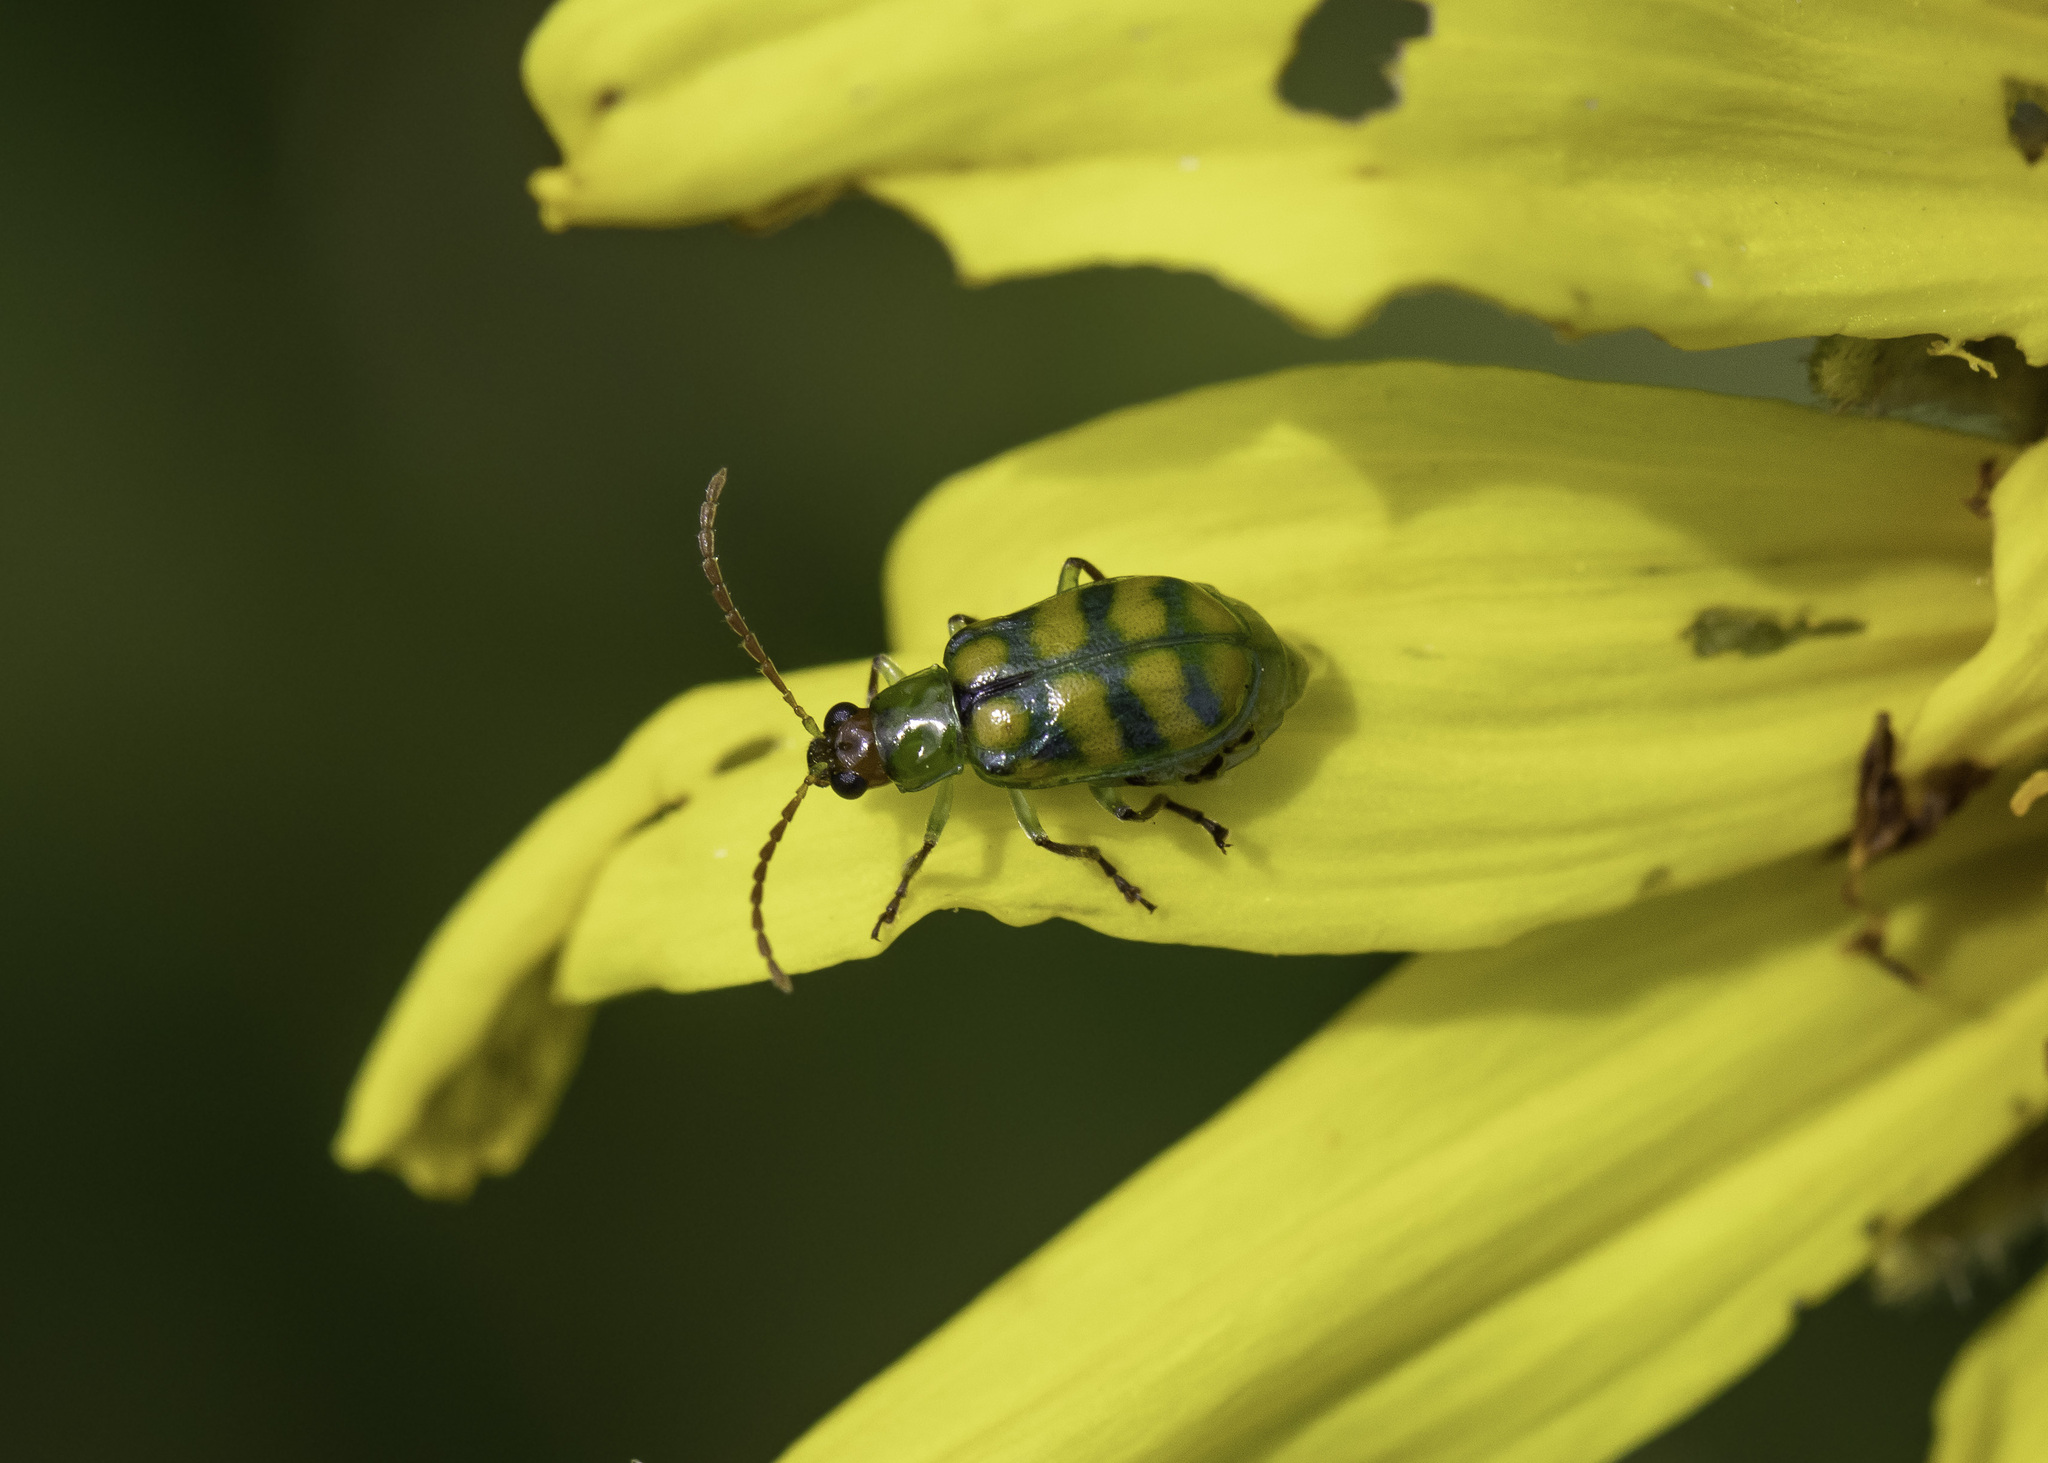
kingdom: Animalia
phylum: Arthropoda
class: Insecta
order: Coleoptera
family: Chrysomelidae
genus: Diabrotica
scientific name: Diabrotica balteata
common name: Leaf beetle
